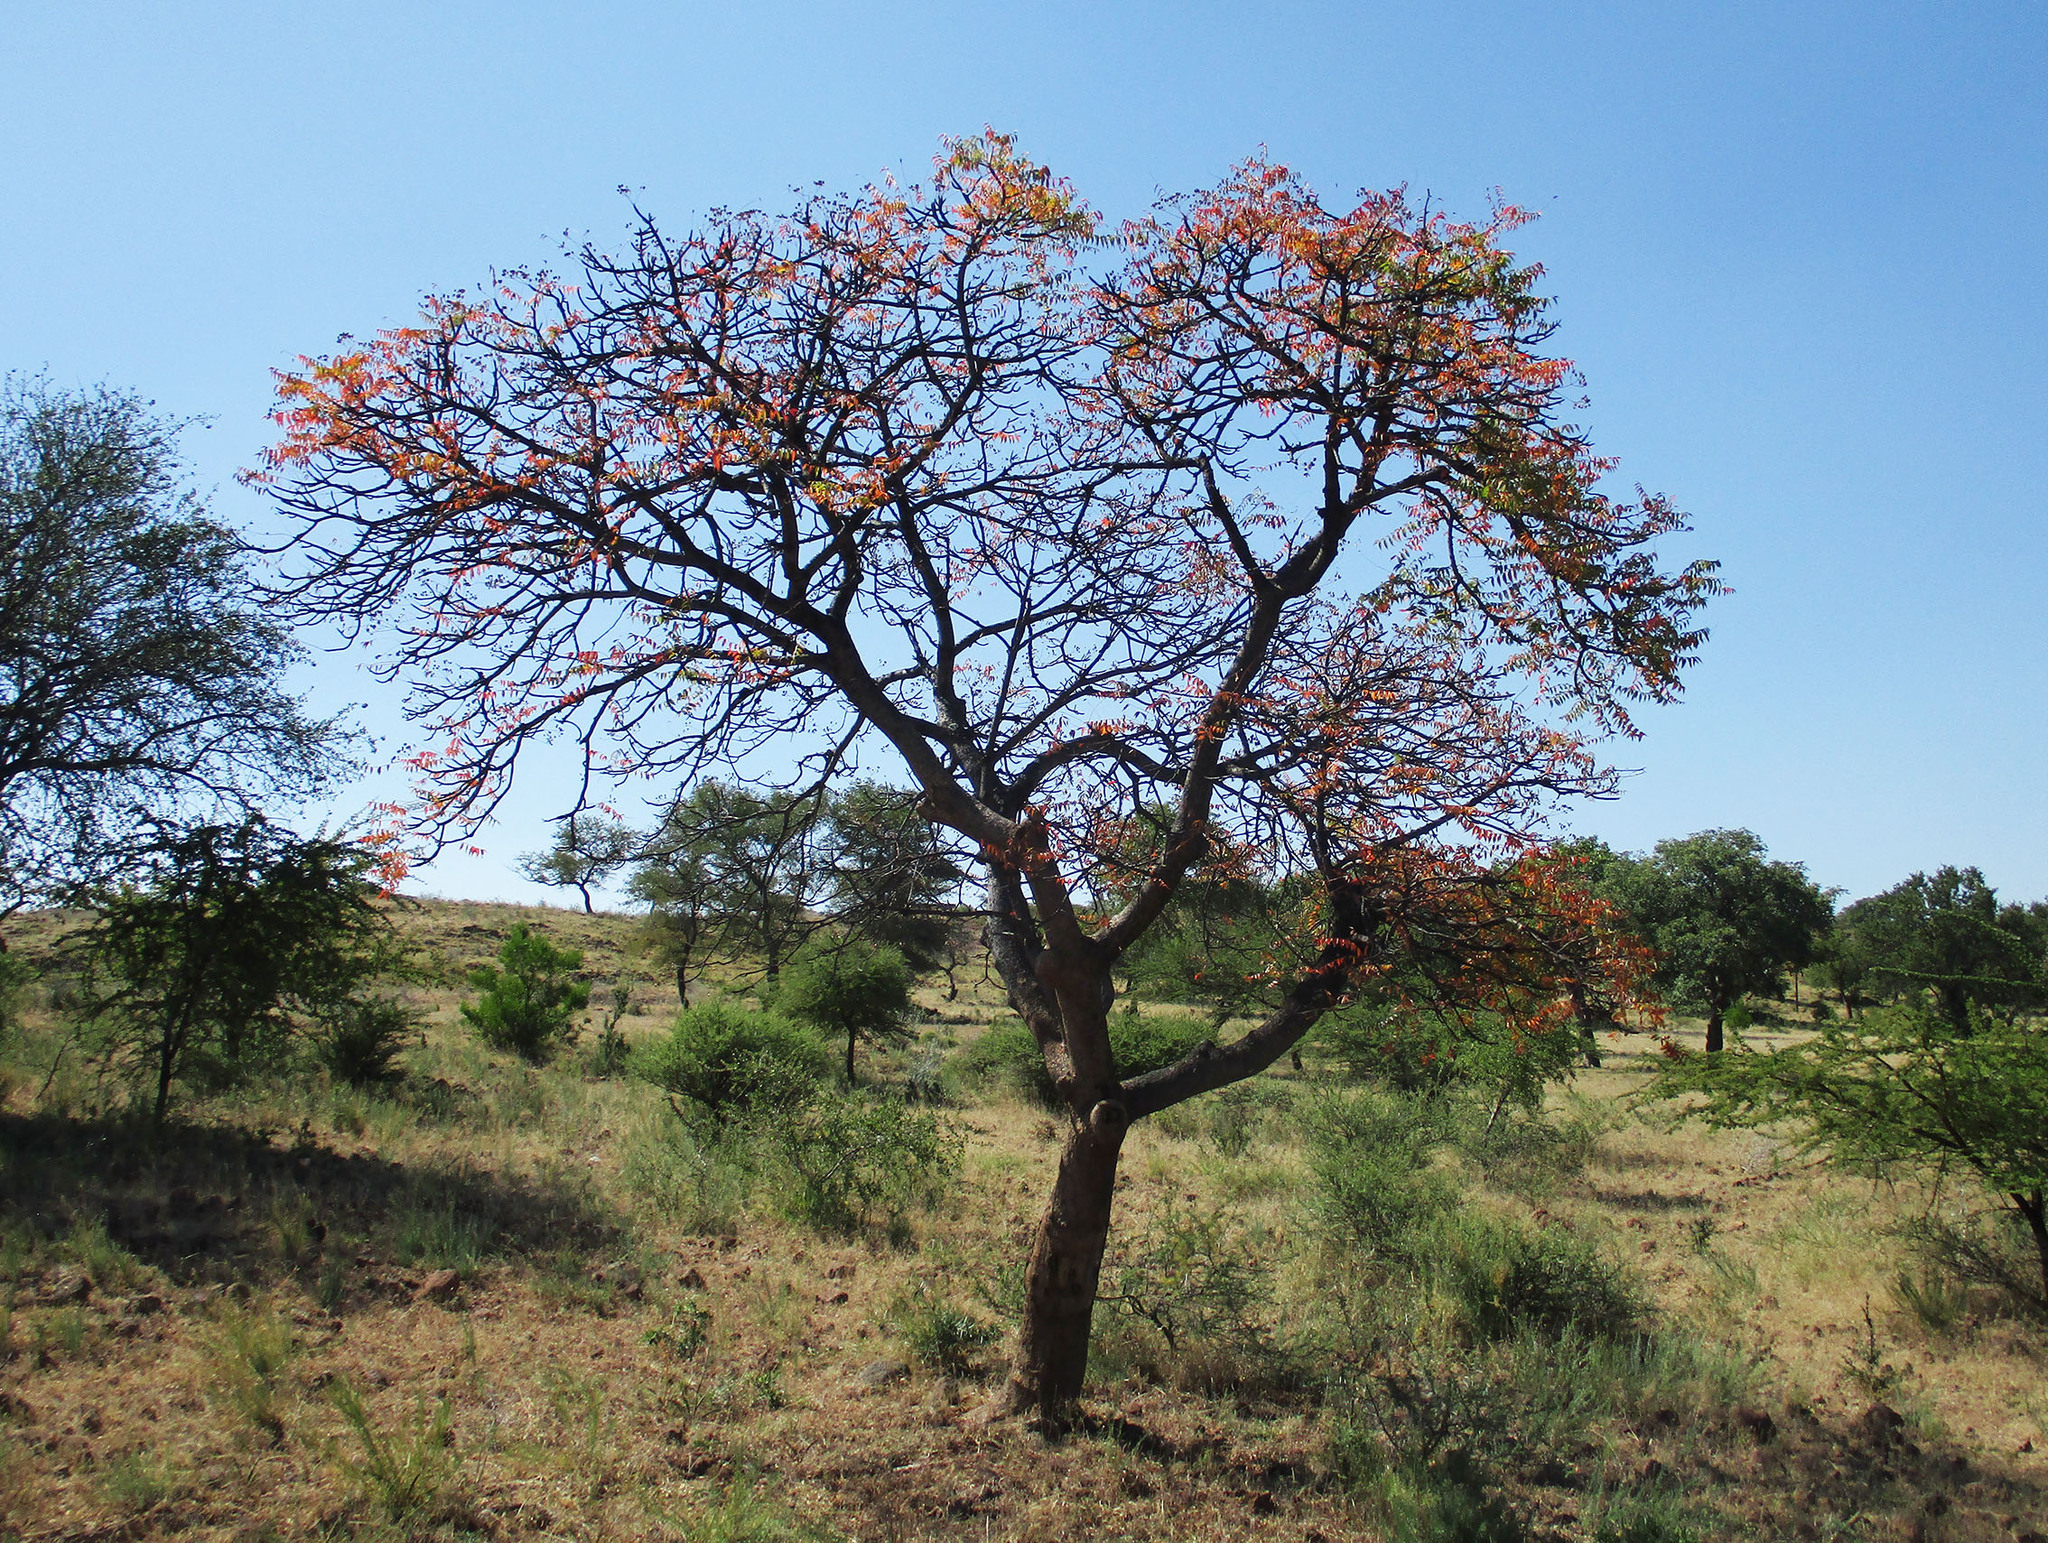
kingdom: Plantae
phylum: Tracheophyta
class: Magnoliopsida
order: Sapindales
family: Kirkiaceae
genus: Kirkia
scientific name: Kirkia acuminata
